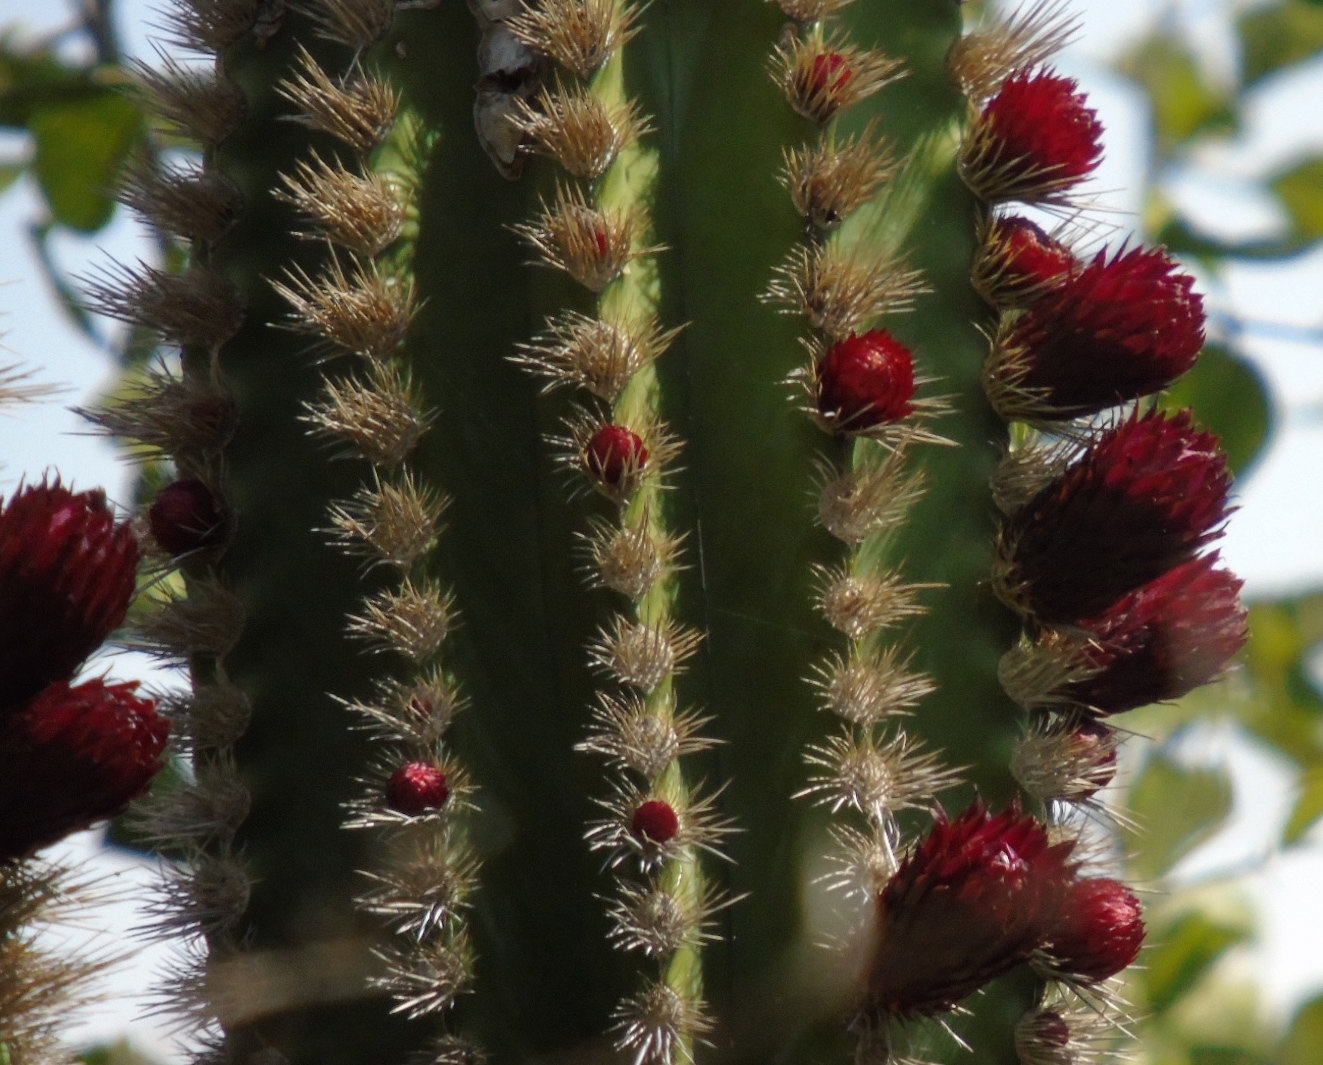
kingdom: Plantae
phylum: Tracheophyta
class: Magnoliopsida
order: Caryophyllales
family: Cactaceae
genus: Pachycereus
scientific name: Pachycereus pecten-aboriginum
